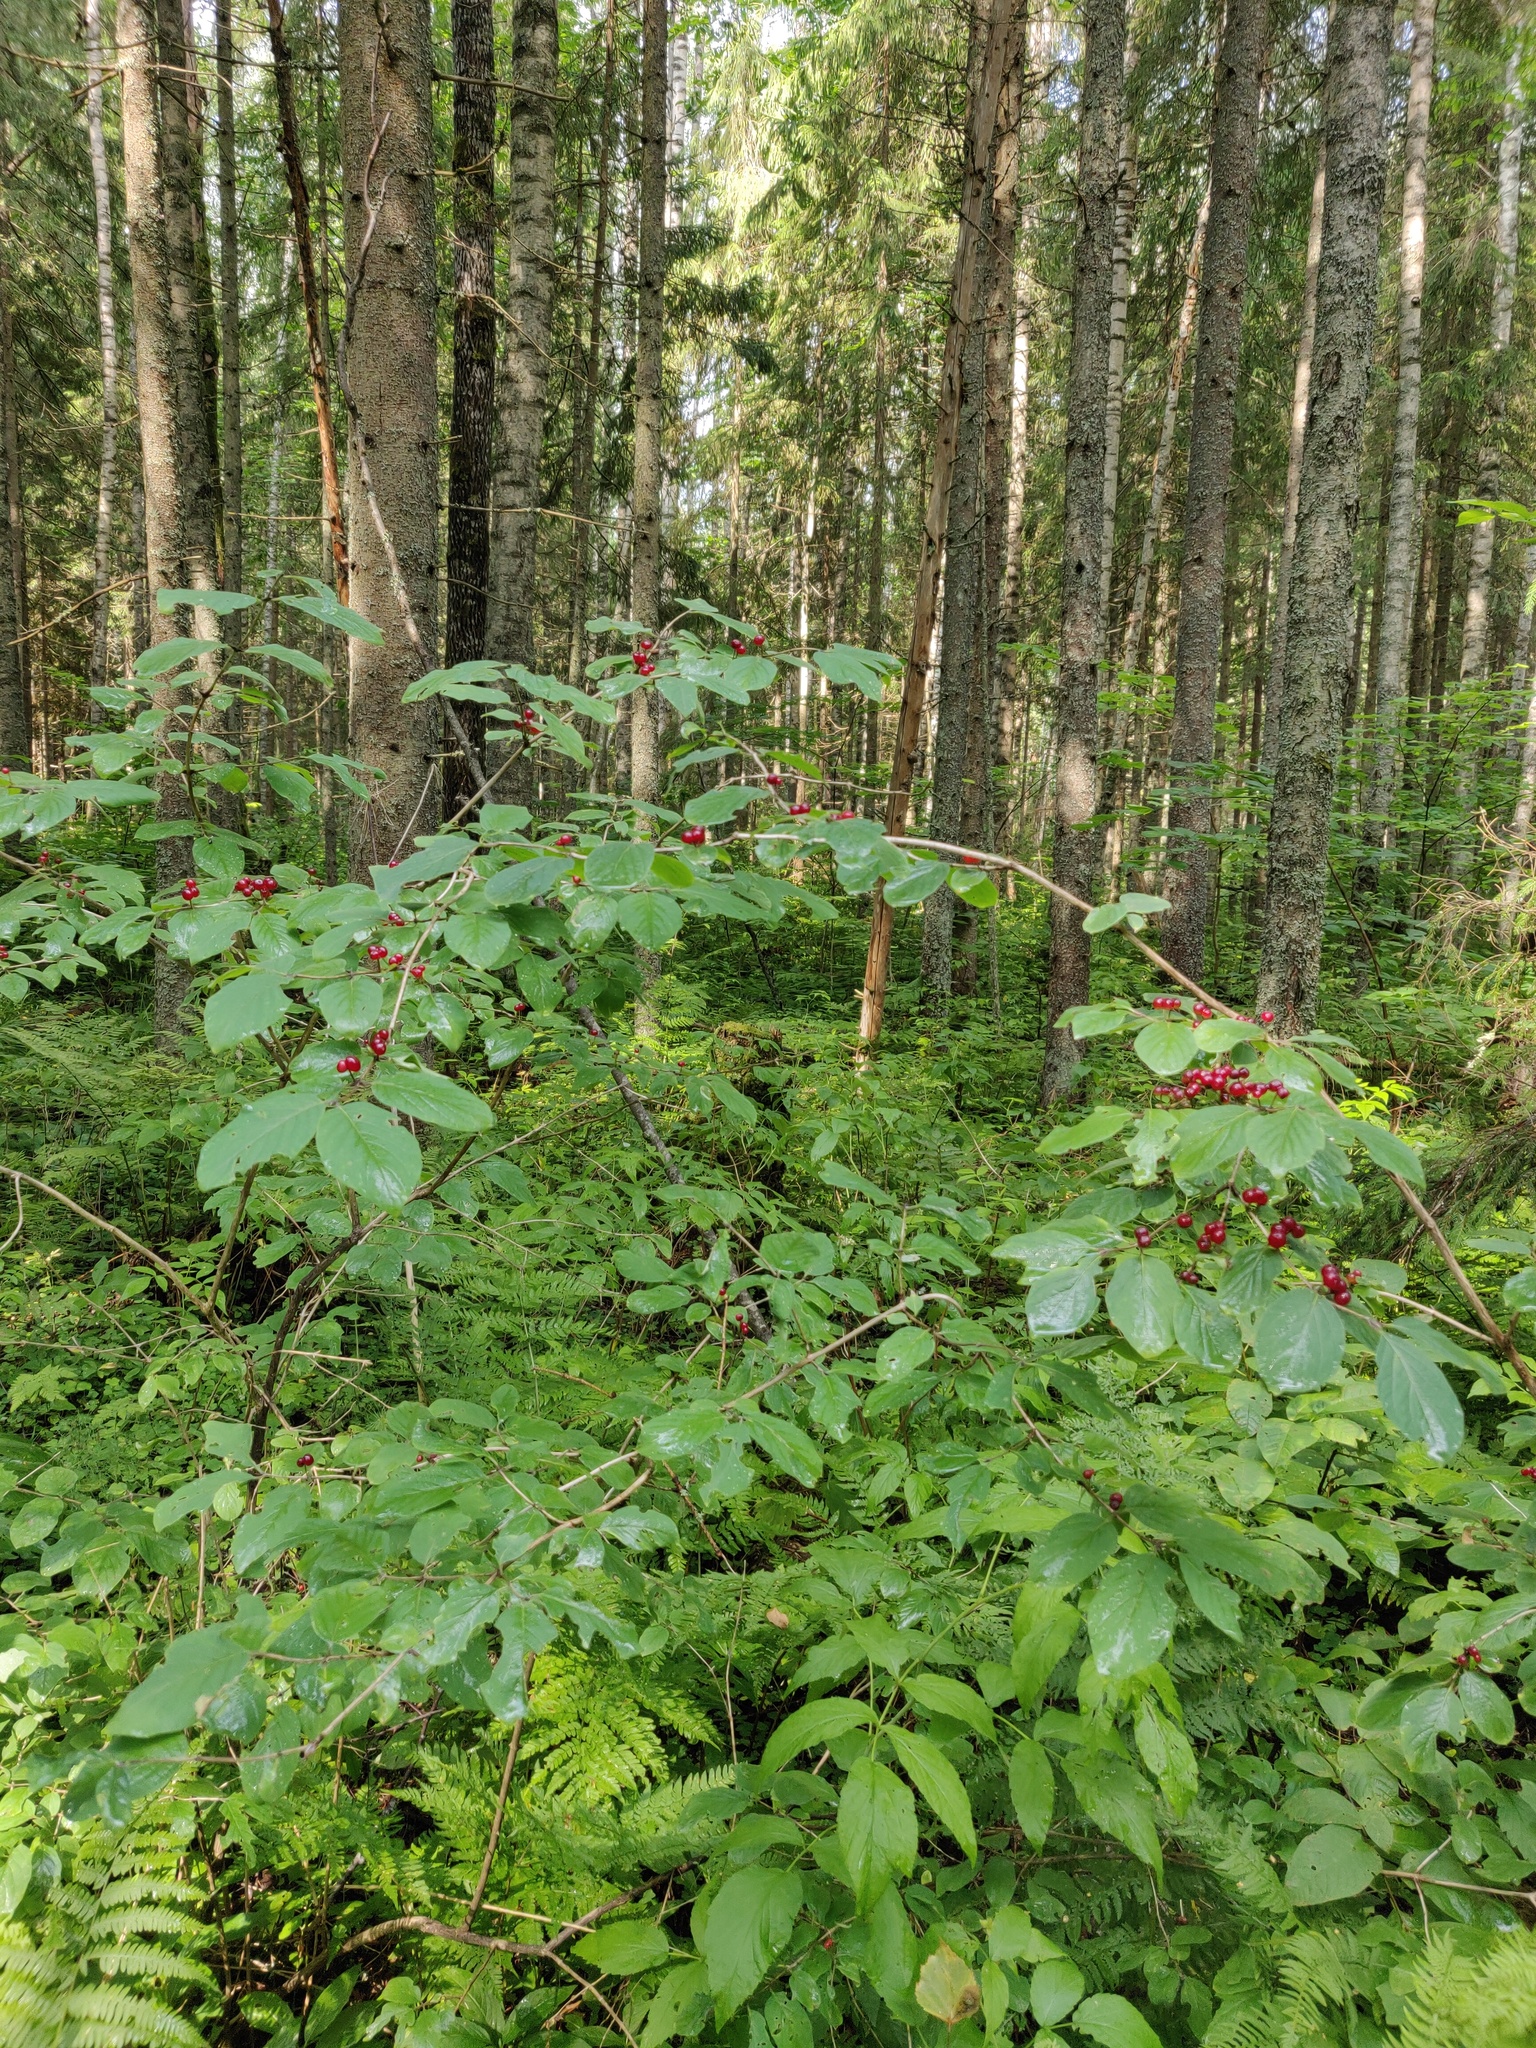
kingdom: Plantae
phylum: Tracheophyta
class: Magnoliopsida
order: Dipsacales
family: Caprifoliaceae
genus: Lonicera
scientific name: Lonicera xylosteum
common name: Fly honeysuckle
